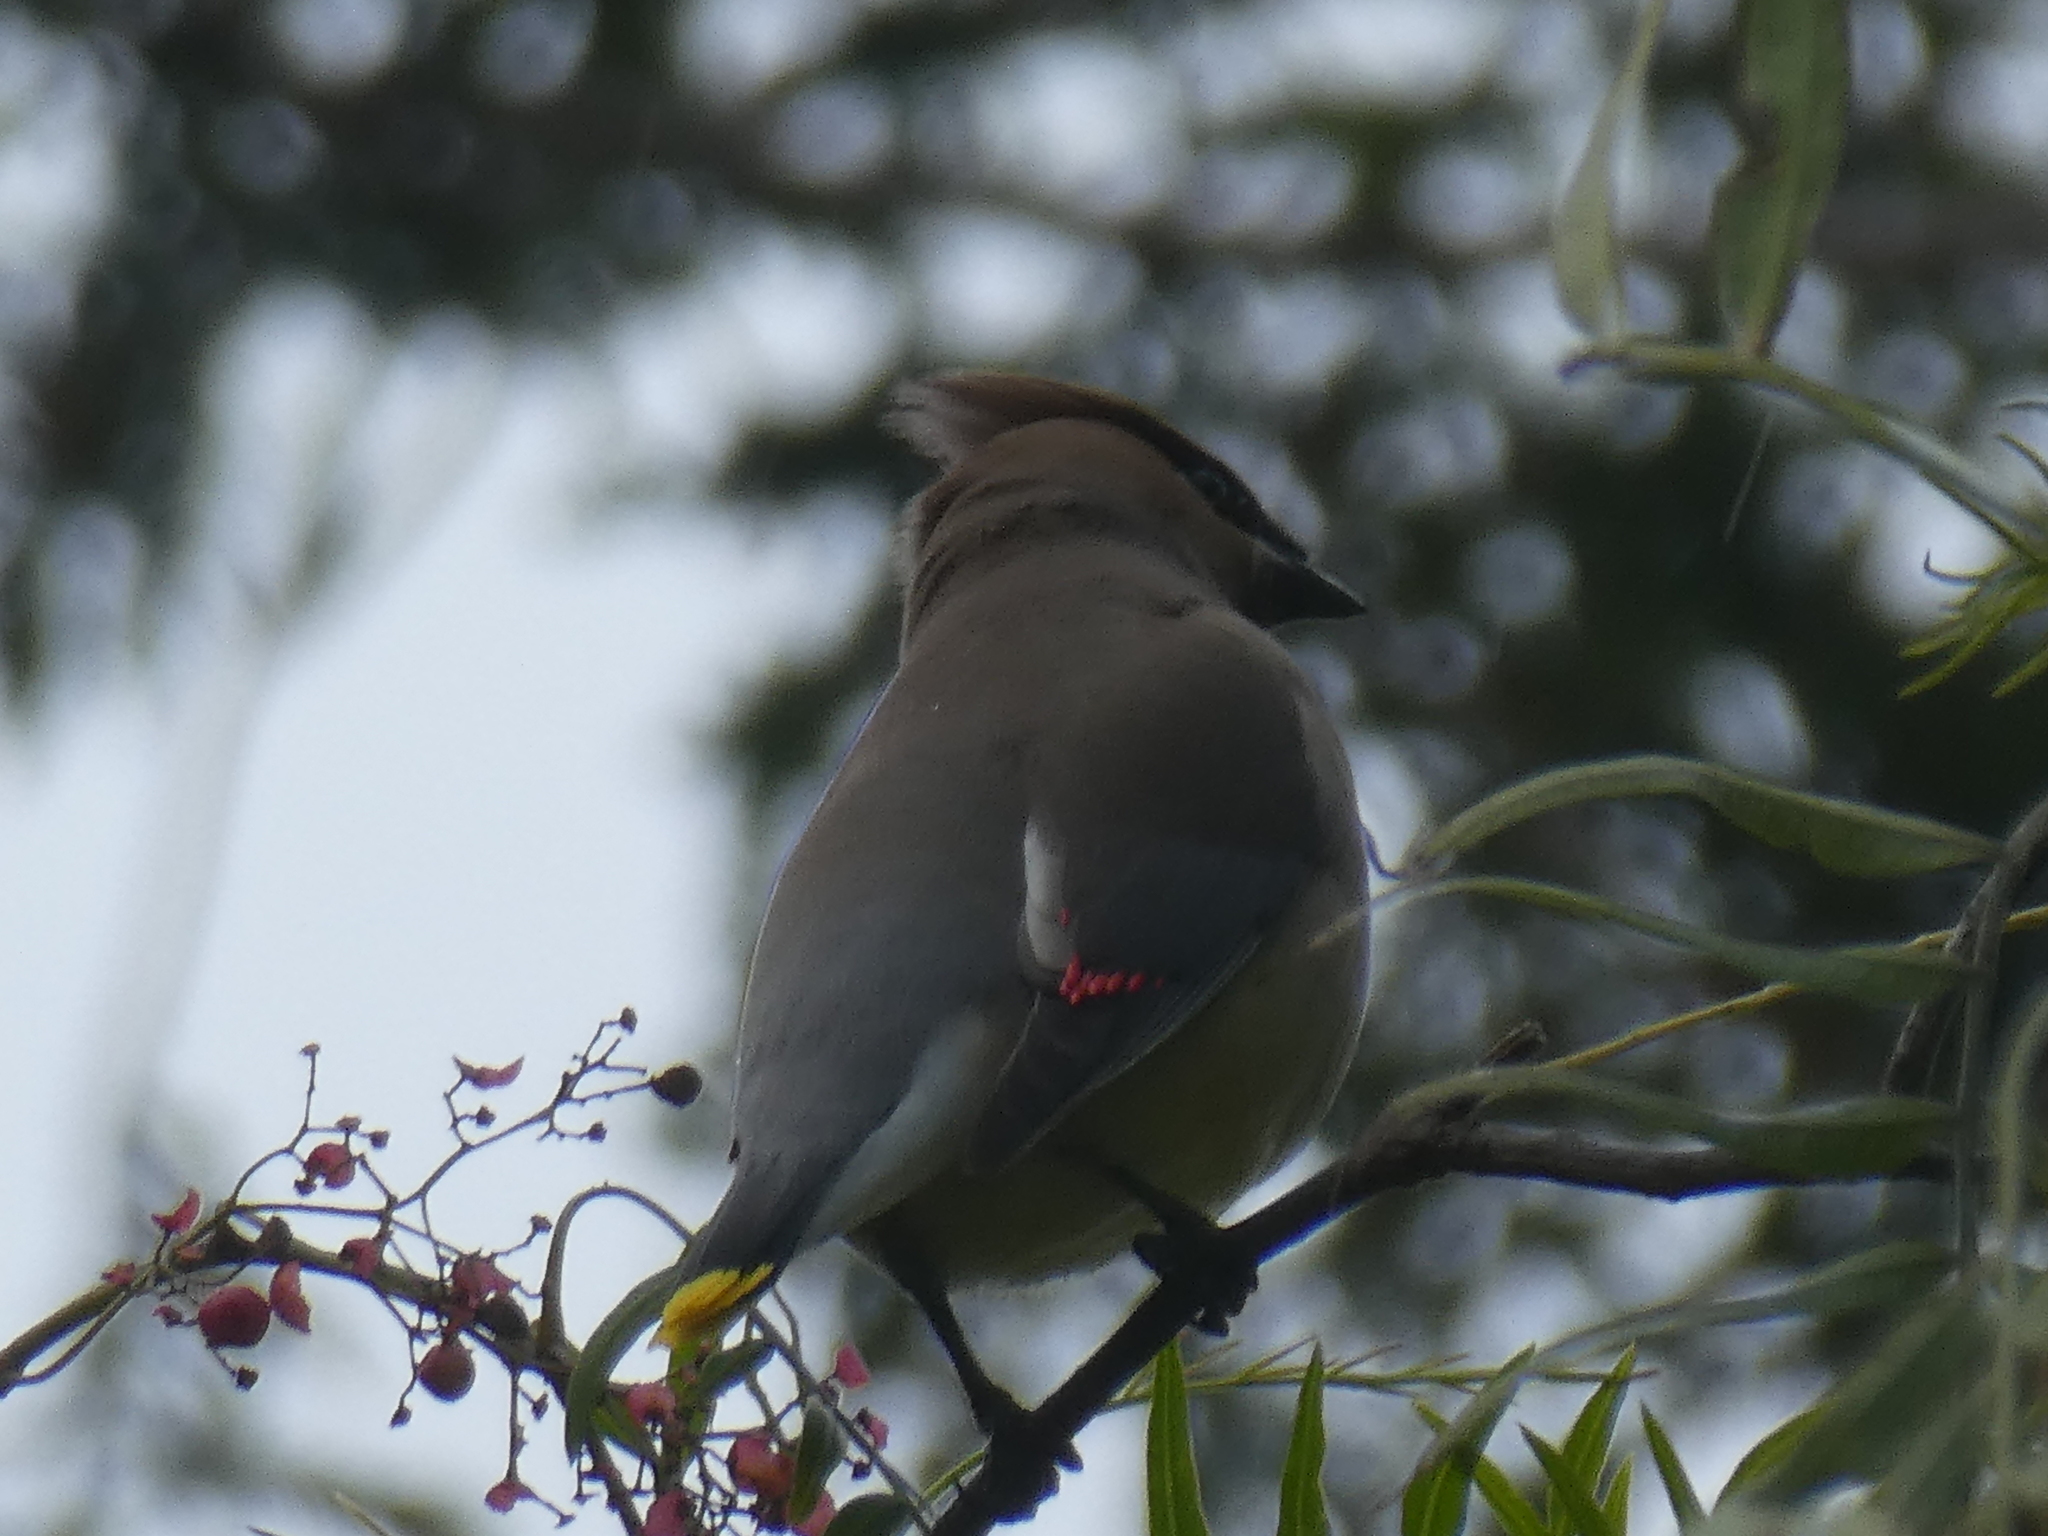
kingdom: Animalia
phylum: Chordata
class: Aves
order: Passeriformes
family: Bombycillidae
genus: Bombycilla
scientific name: Bombycilla cedrorum
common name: Cedar waxwing
